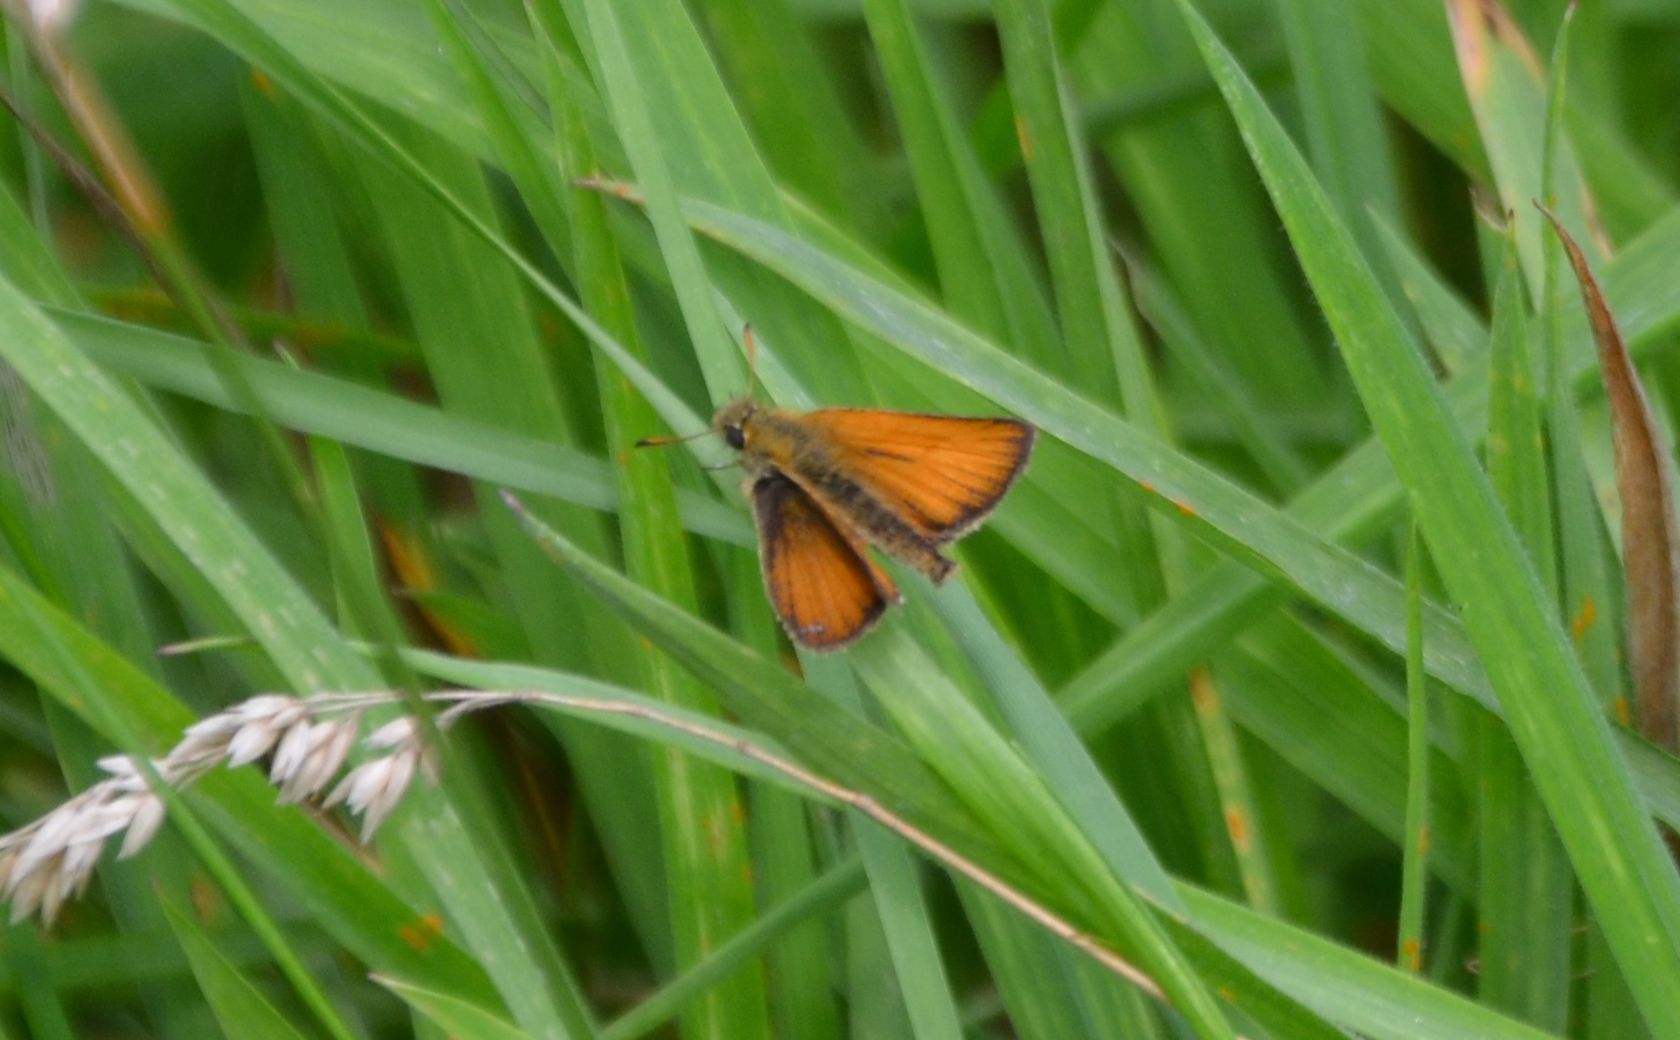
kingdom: Animalia
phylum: Arthropoda
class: Insecta
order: Lepidoptera
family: Hesperiidae
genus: Thymelicus
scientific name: Thymelicus lineola
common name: Essex skipper
